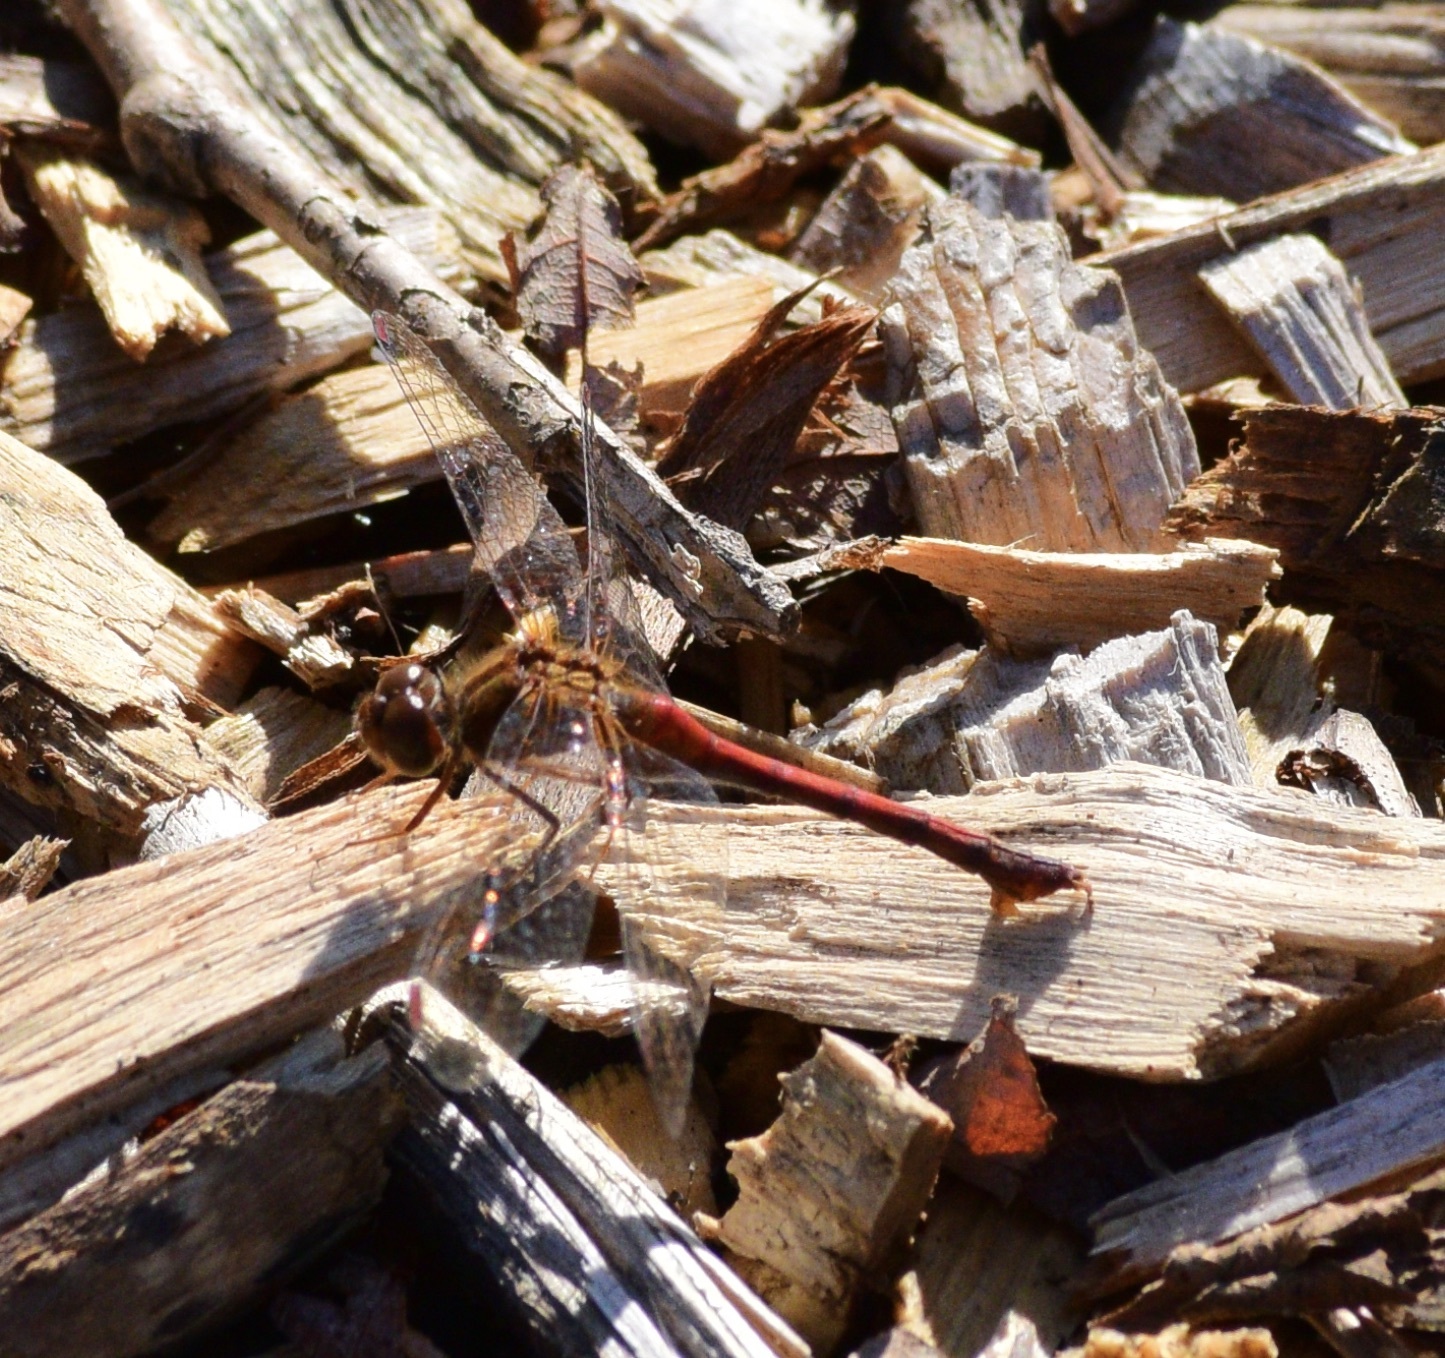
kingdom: Animalia
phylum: Arthropoda
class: Insecta
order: Odonata
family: Libellulidae
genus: Sympetrum
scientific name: Sympetrum vicinum
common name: Autumn meadowhawk
